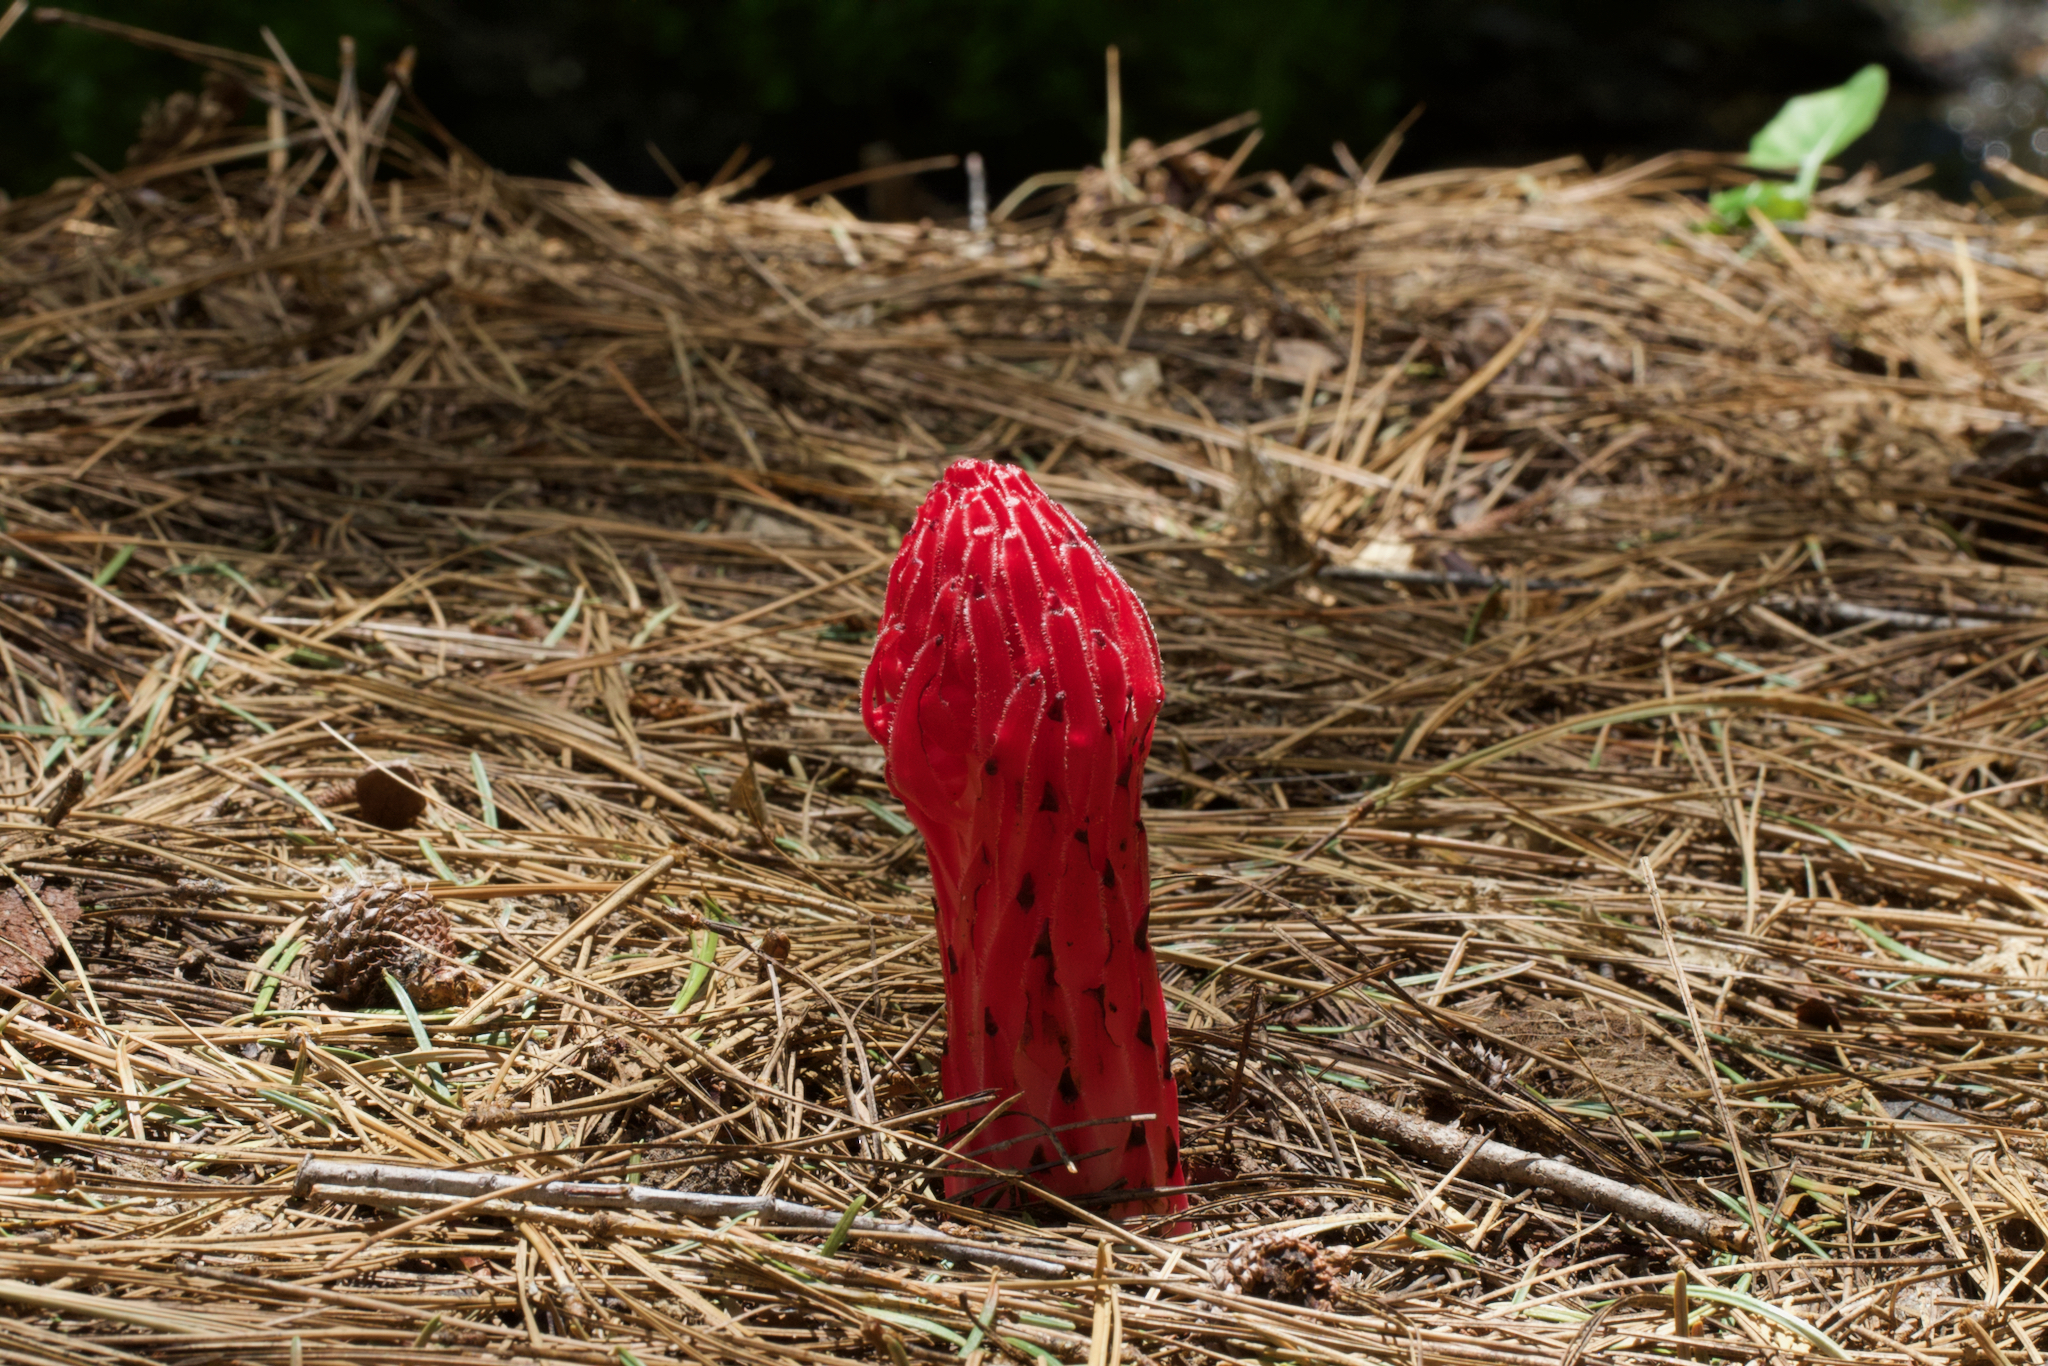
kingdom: Plantae
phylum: Tracheophyta
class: Magnoliopsida
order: Ericales
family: Ericaceae
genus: Sarcodes
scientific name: Sarcodes sanguinea
